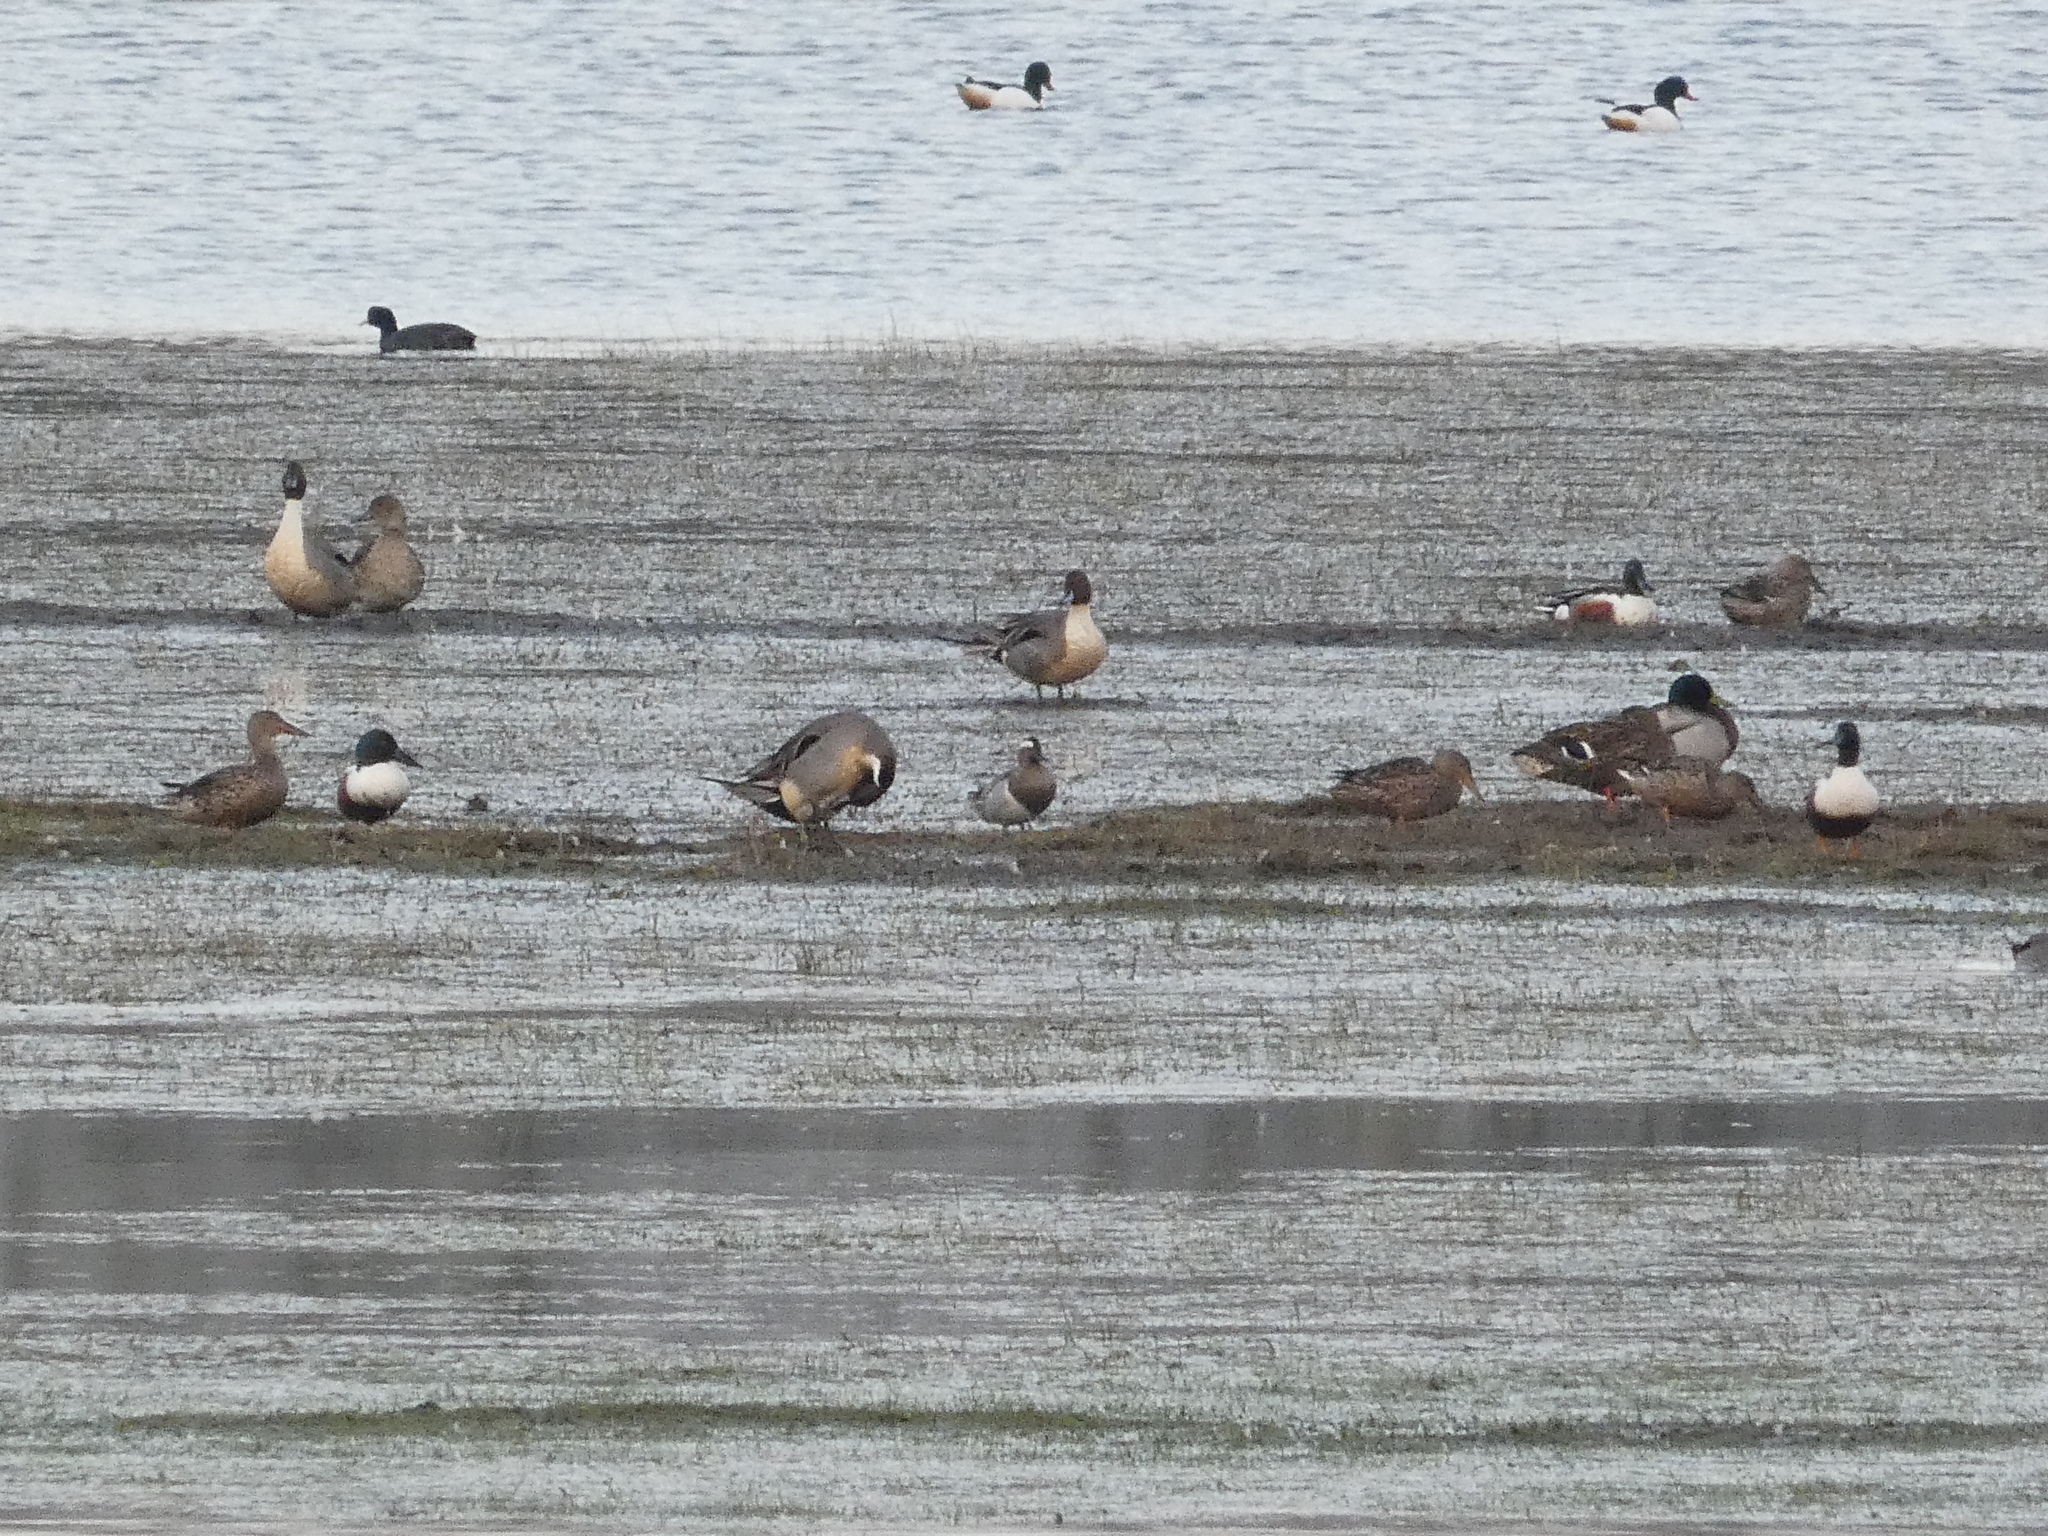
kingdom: Animalia
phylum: Chordata
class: Aves
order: Anseriformes
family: Anatidae
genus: Spatula
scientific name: Spatula querquedula
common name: Garganey
